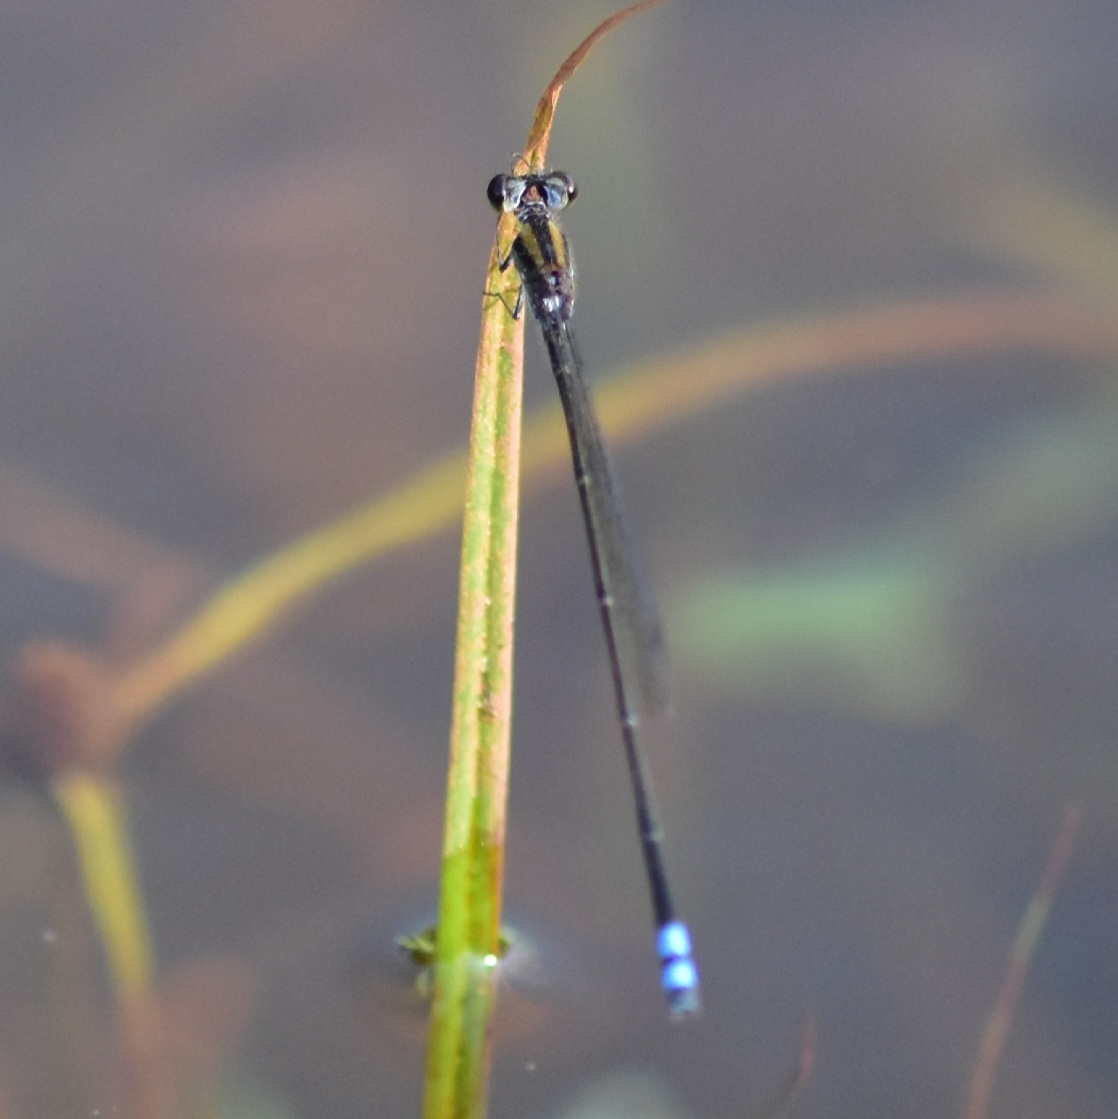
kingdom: Animalia
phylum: Arthropoda
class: Insecta
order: Odonata
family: Coenagrionidae
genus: Pseudagrion
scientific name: Pseudagrion indicum
